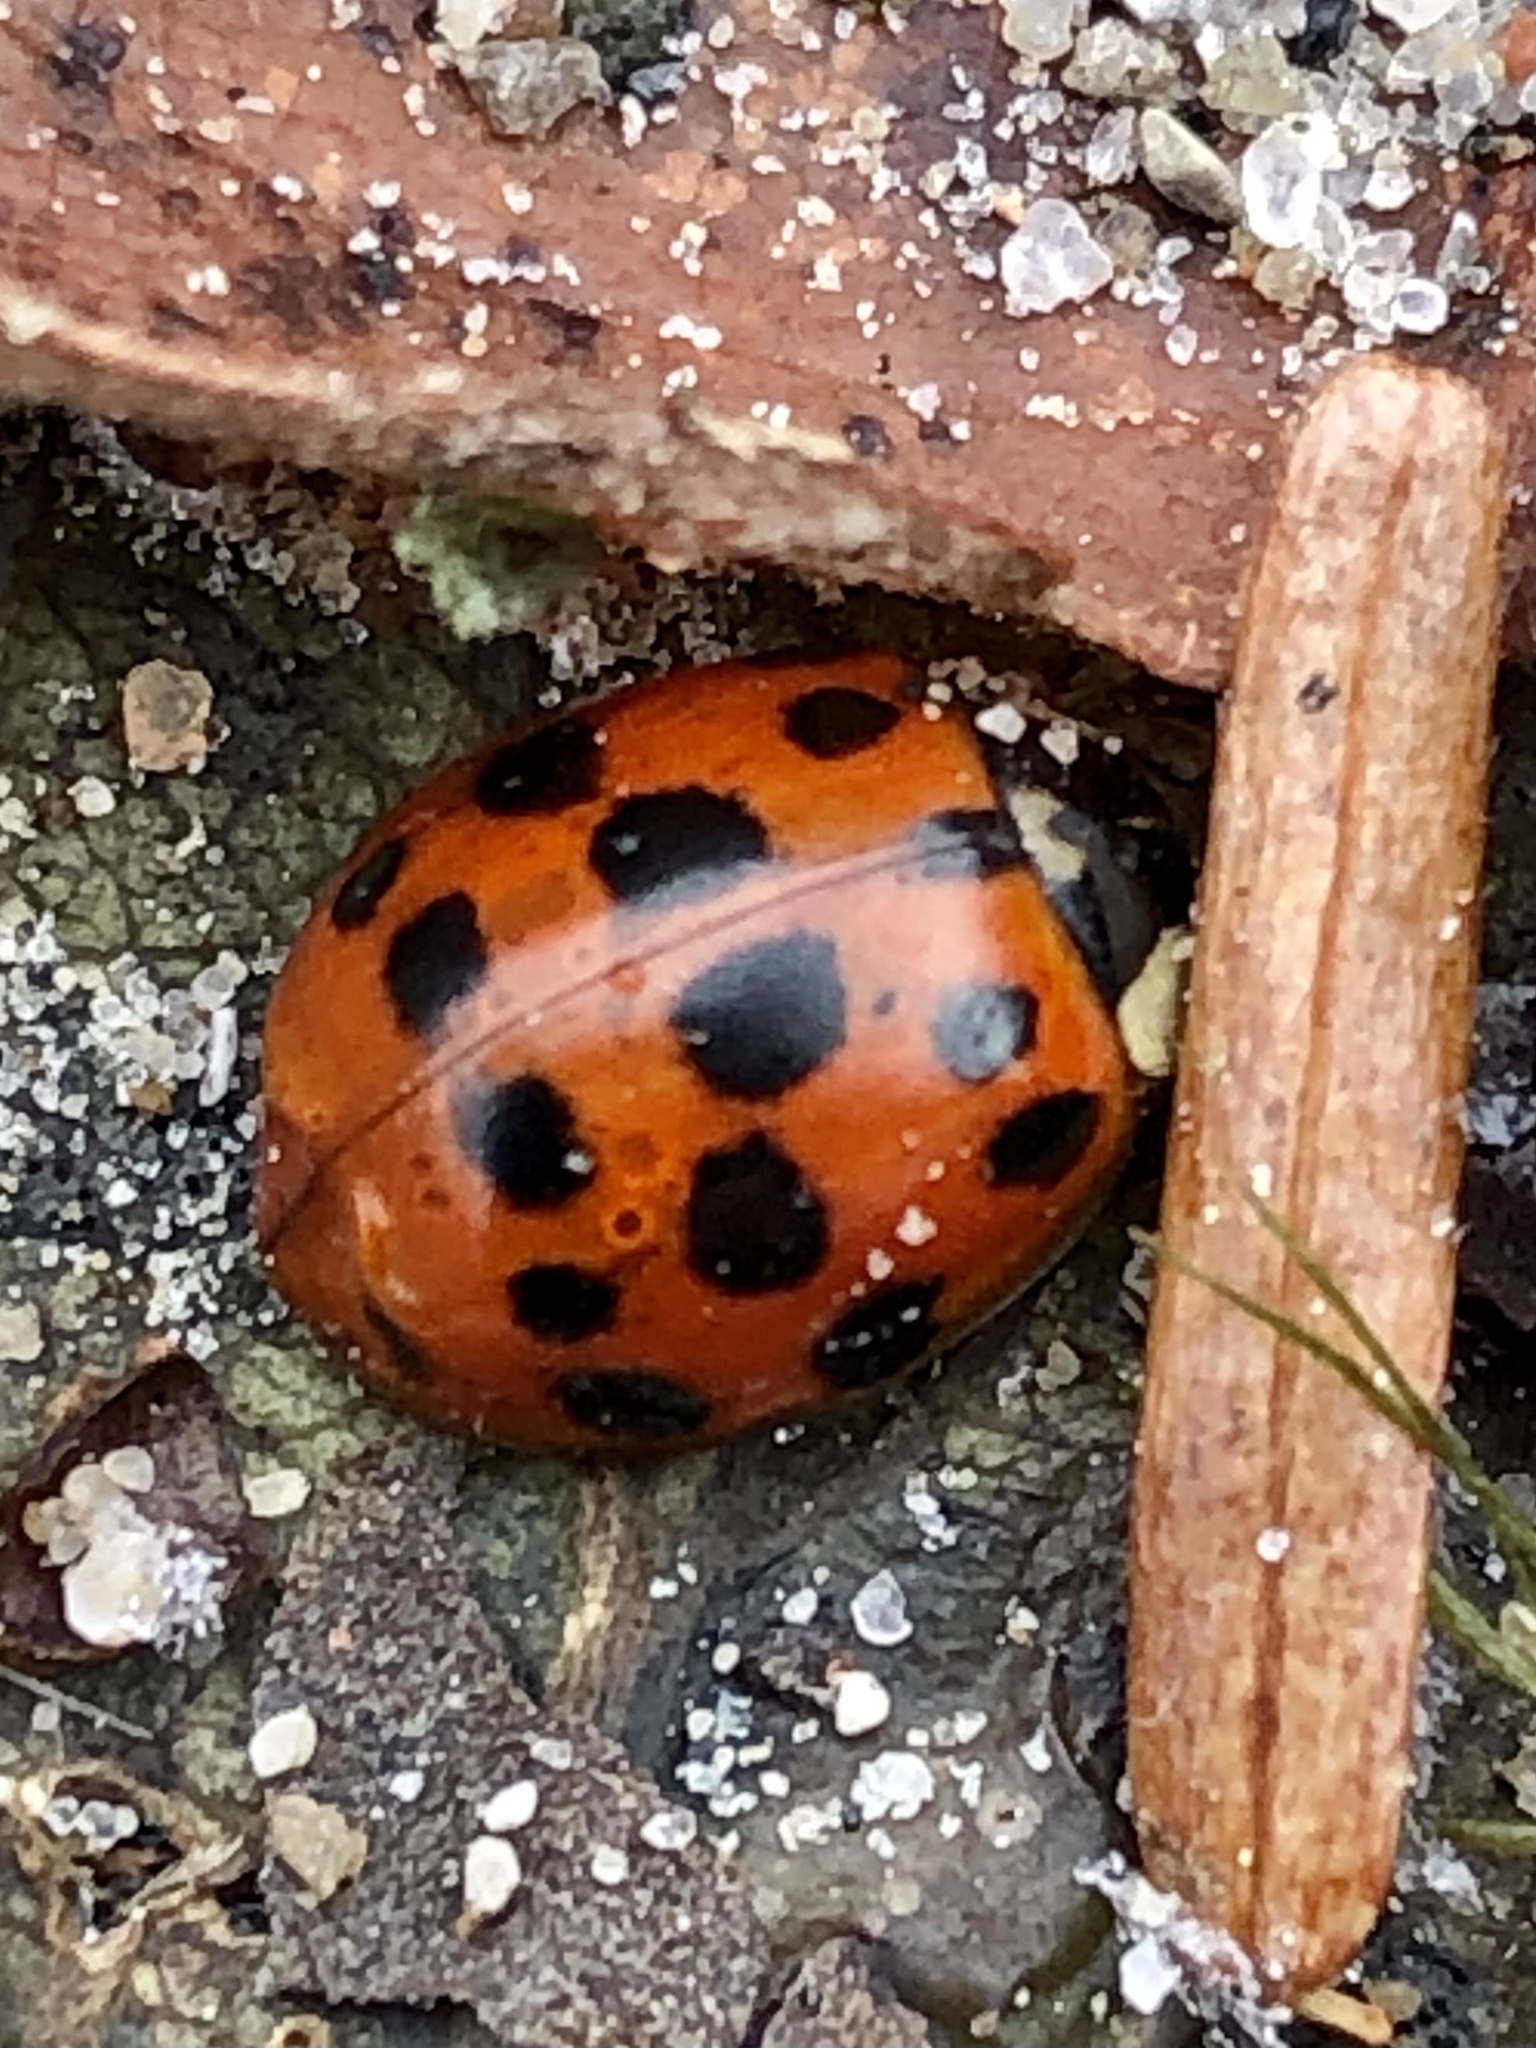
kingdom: Animalia
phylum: Arthropoda
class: Insecta
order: Coleoptera
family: Coccinellidae
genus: Harmonia
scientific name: Harmonia axyridis
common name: Harlequin ladybird
